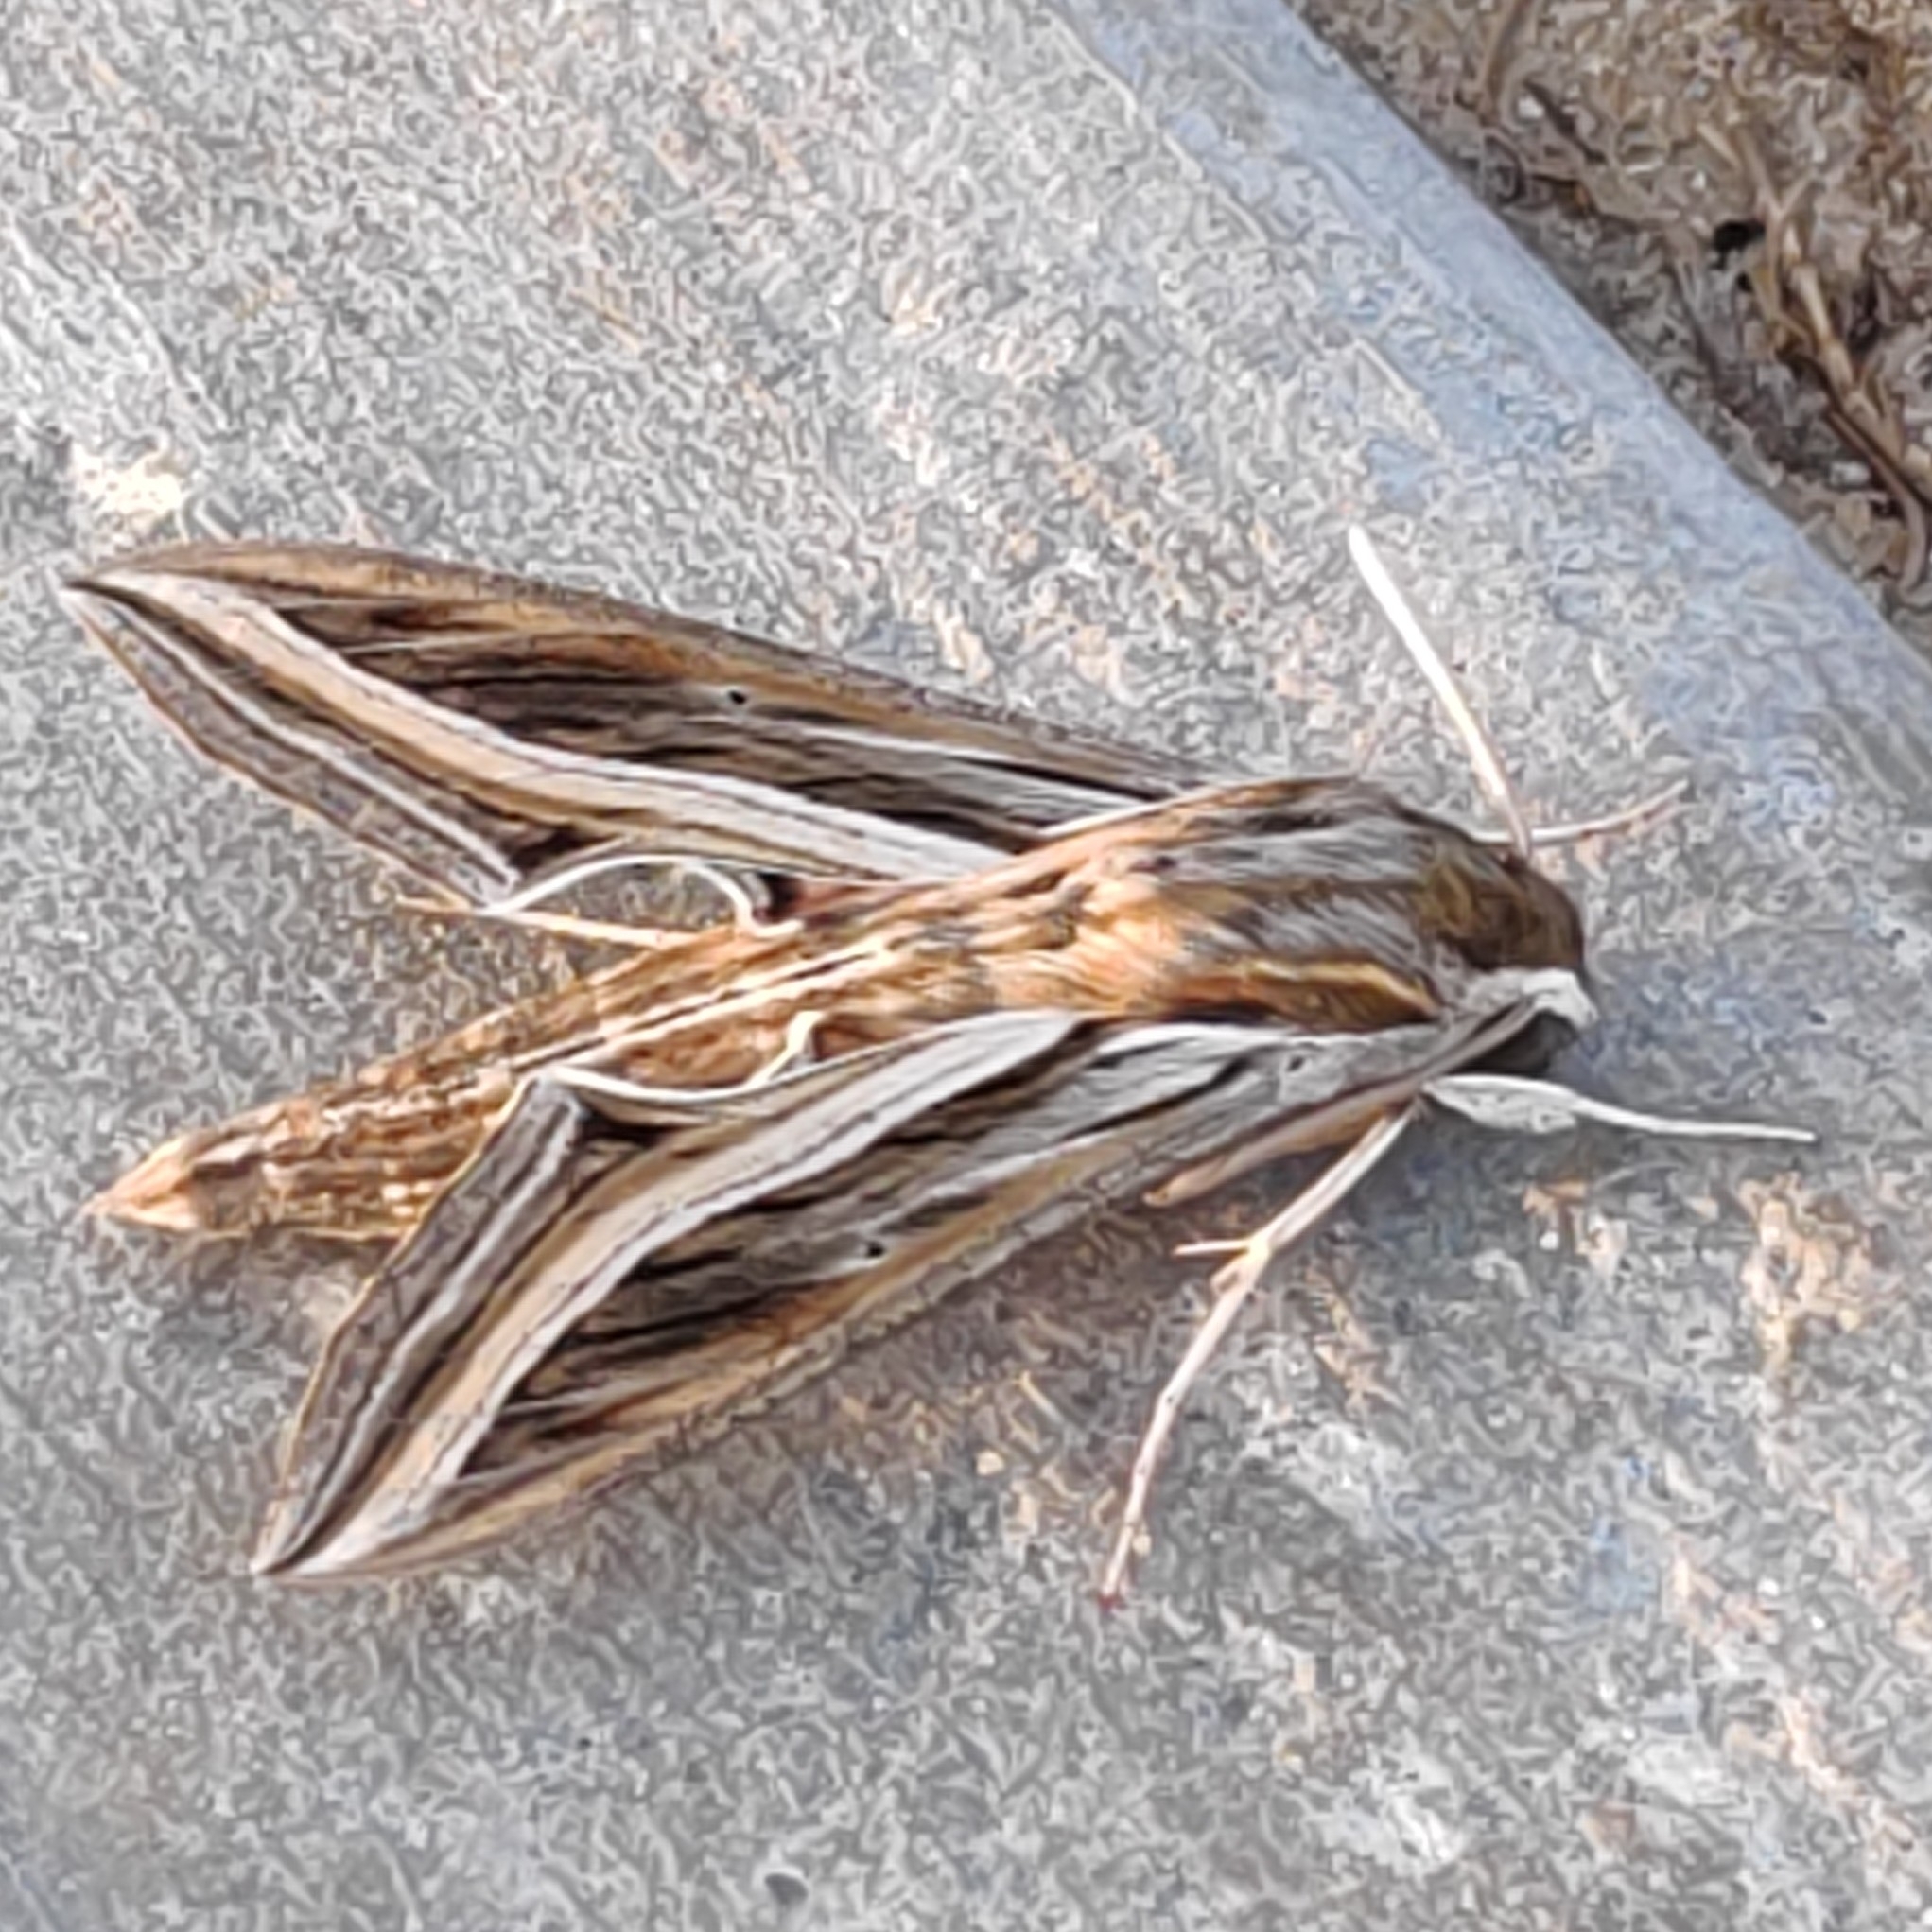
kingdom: Animalia
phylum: Arthropoda
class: Insecta
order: Lepidoptera
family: Sphingidae
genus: Hippotion
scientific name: Hippotion celerio
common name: Silver-striped hawk-moth
